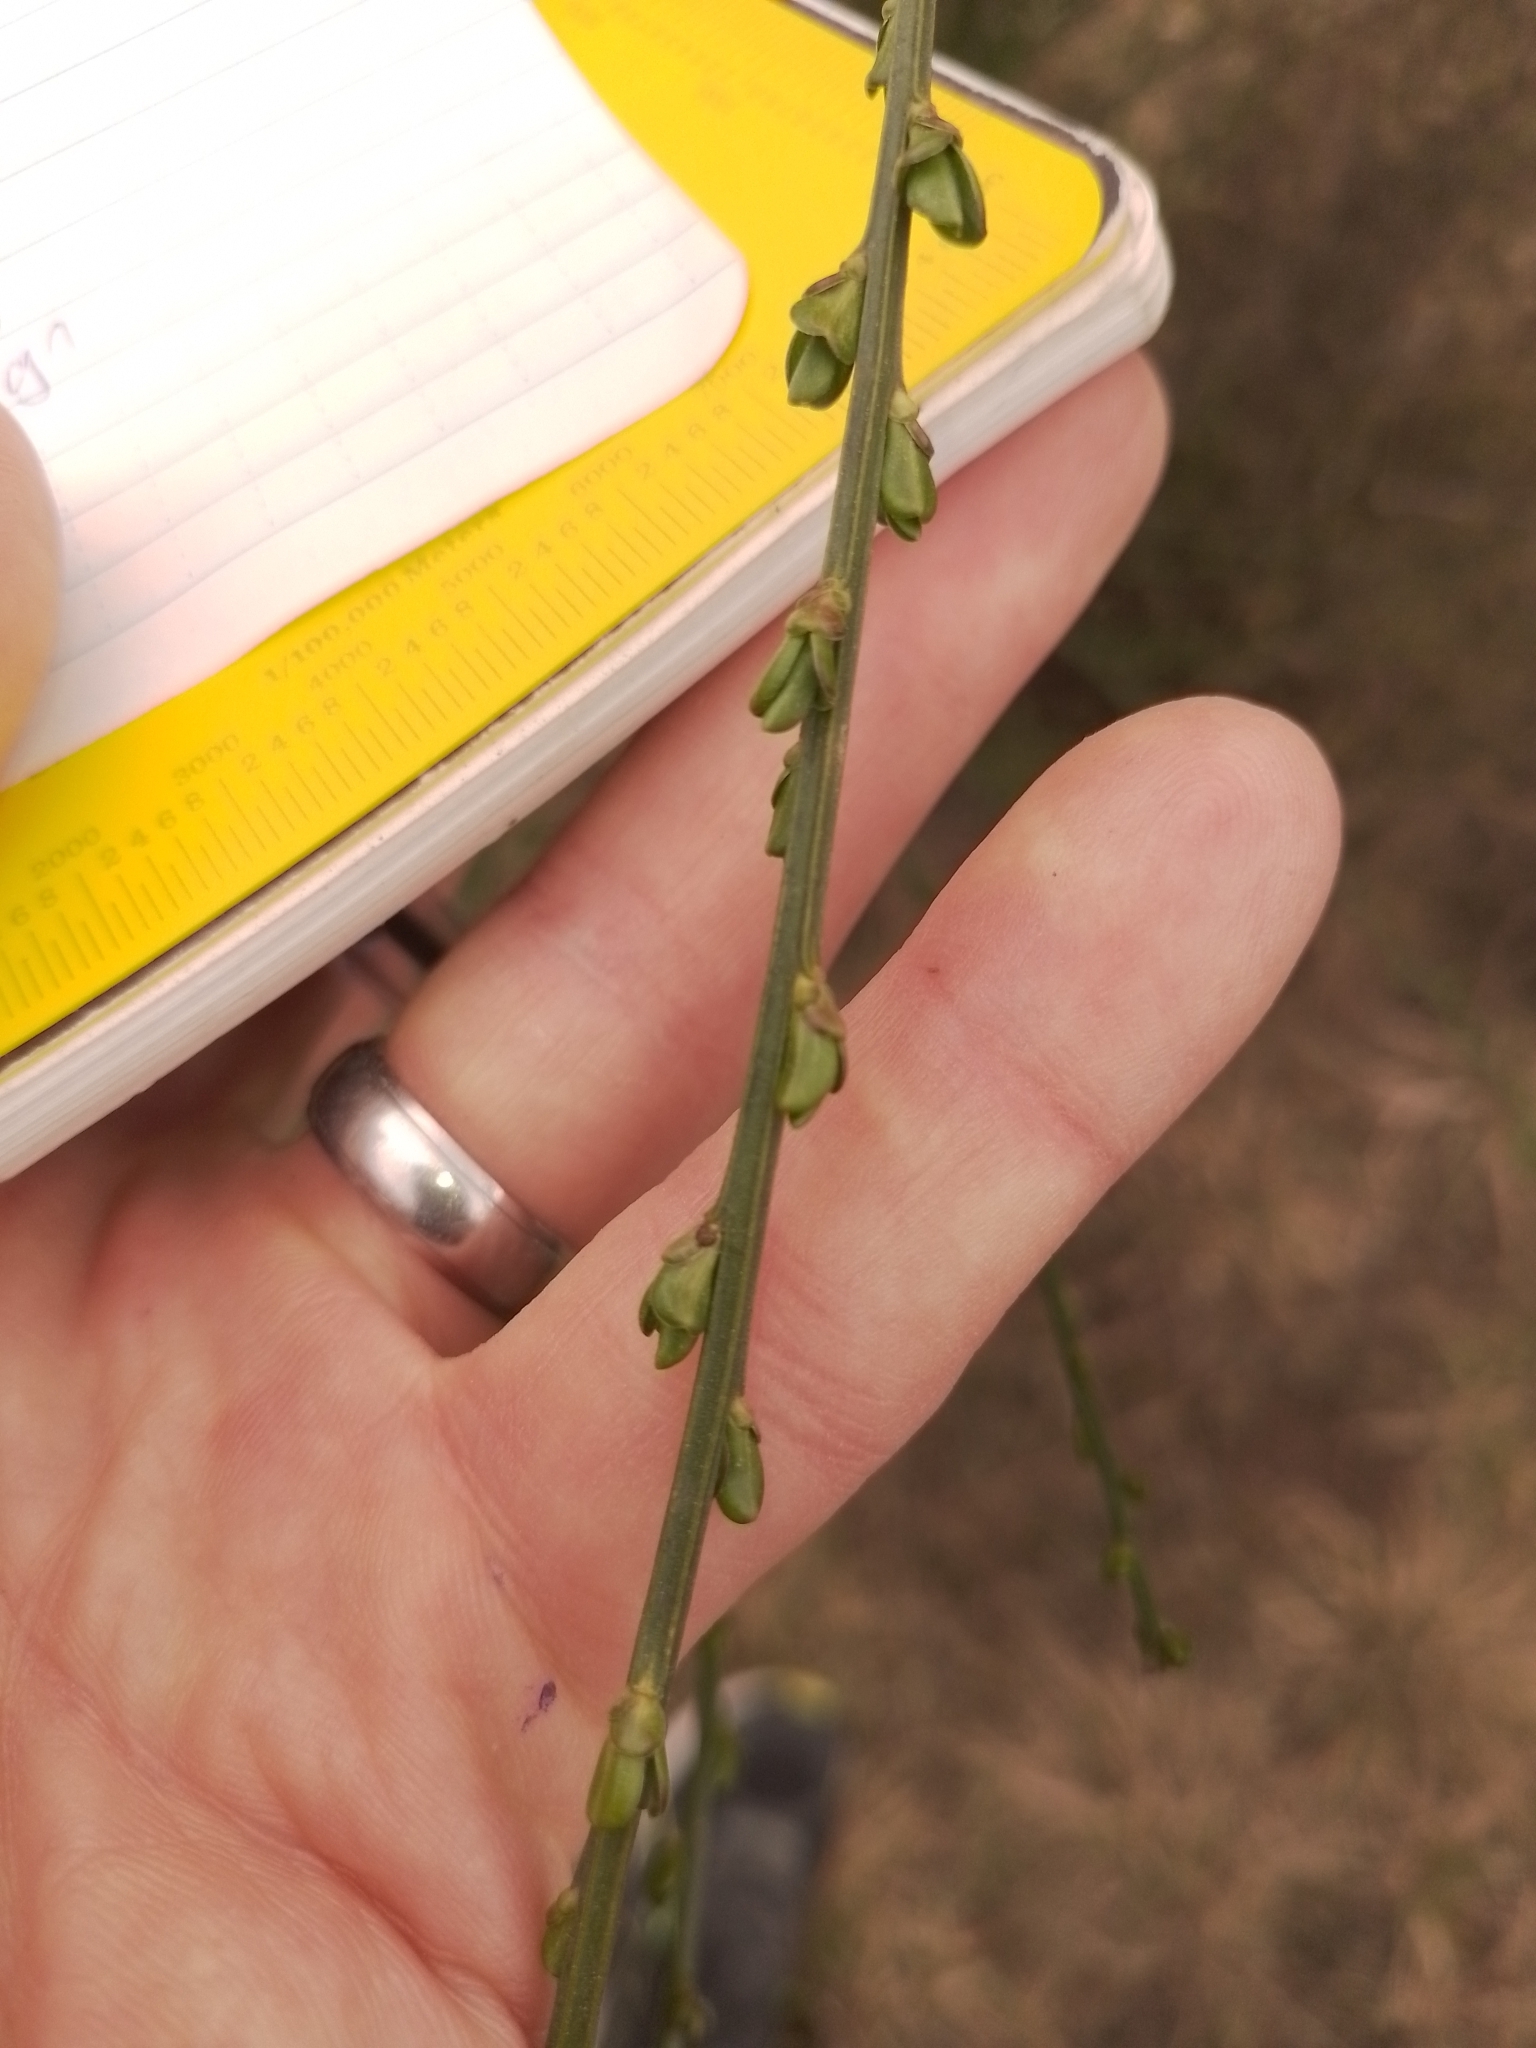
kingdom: Plantae
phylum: Tracheophyta
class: Magnoliopsida
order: Fabales
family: Fabaceae
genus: Cytisus
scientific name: Cytisus scoparius
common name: Scotch broom
